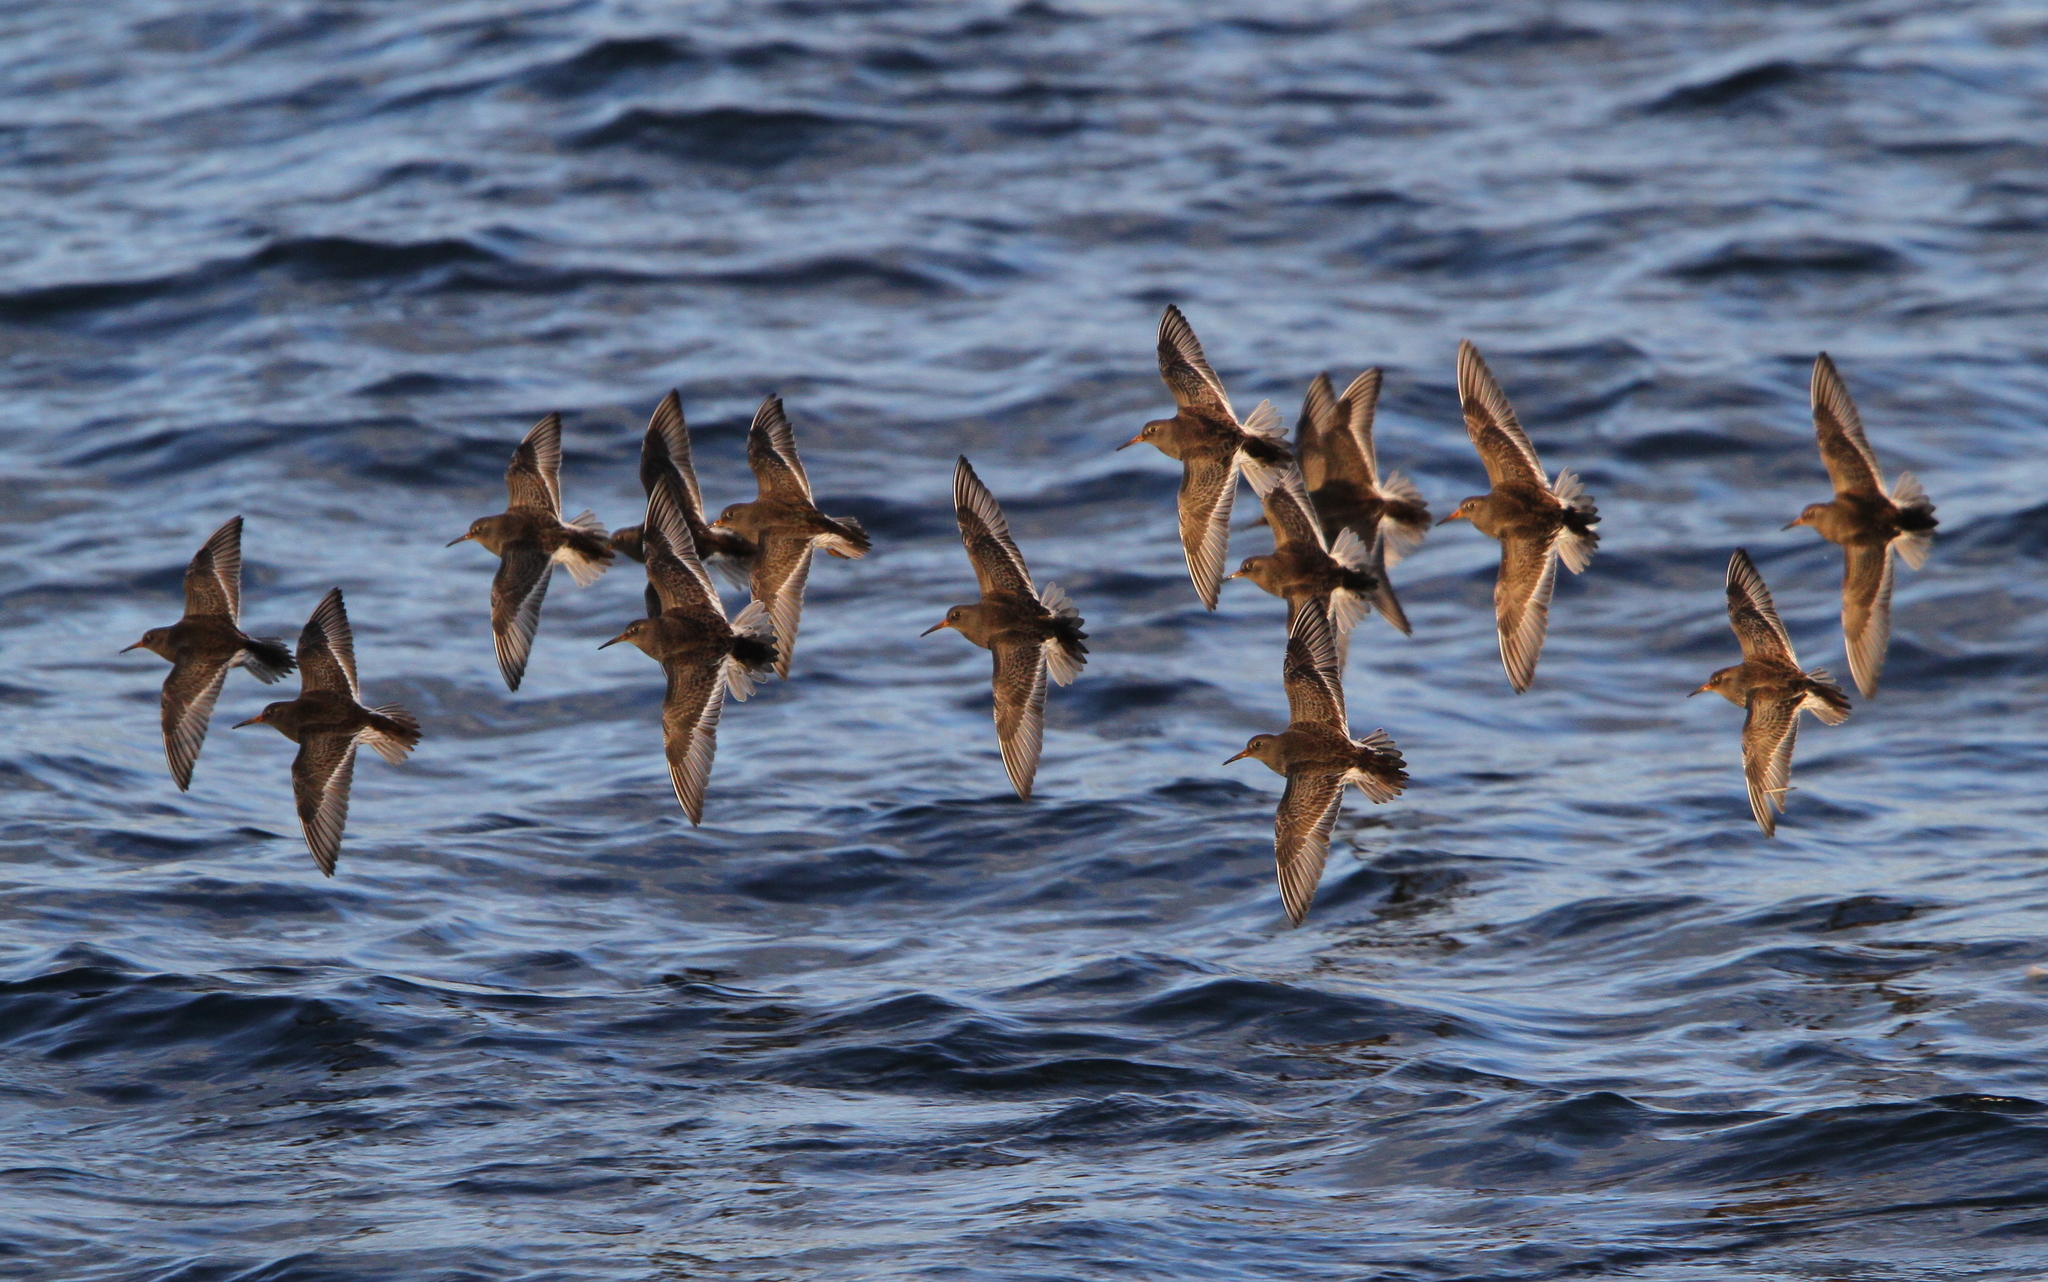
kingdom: Animalia
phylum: Chordata
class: Aves
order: Charadriiformes
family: Scolopacidae
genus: Calidris
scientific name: Calidris maritima
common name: Purple sandpiper
